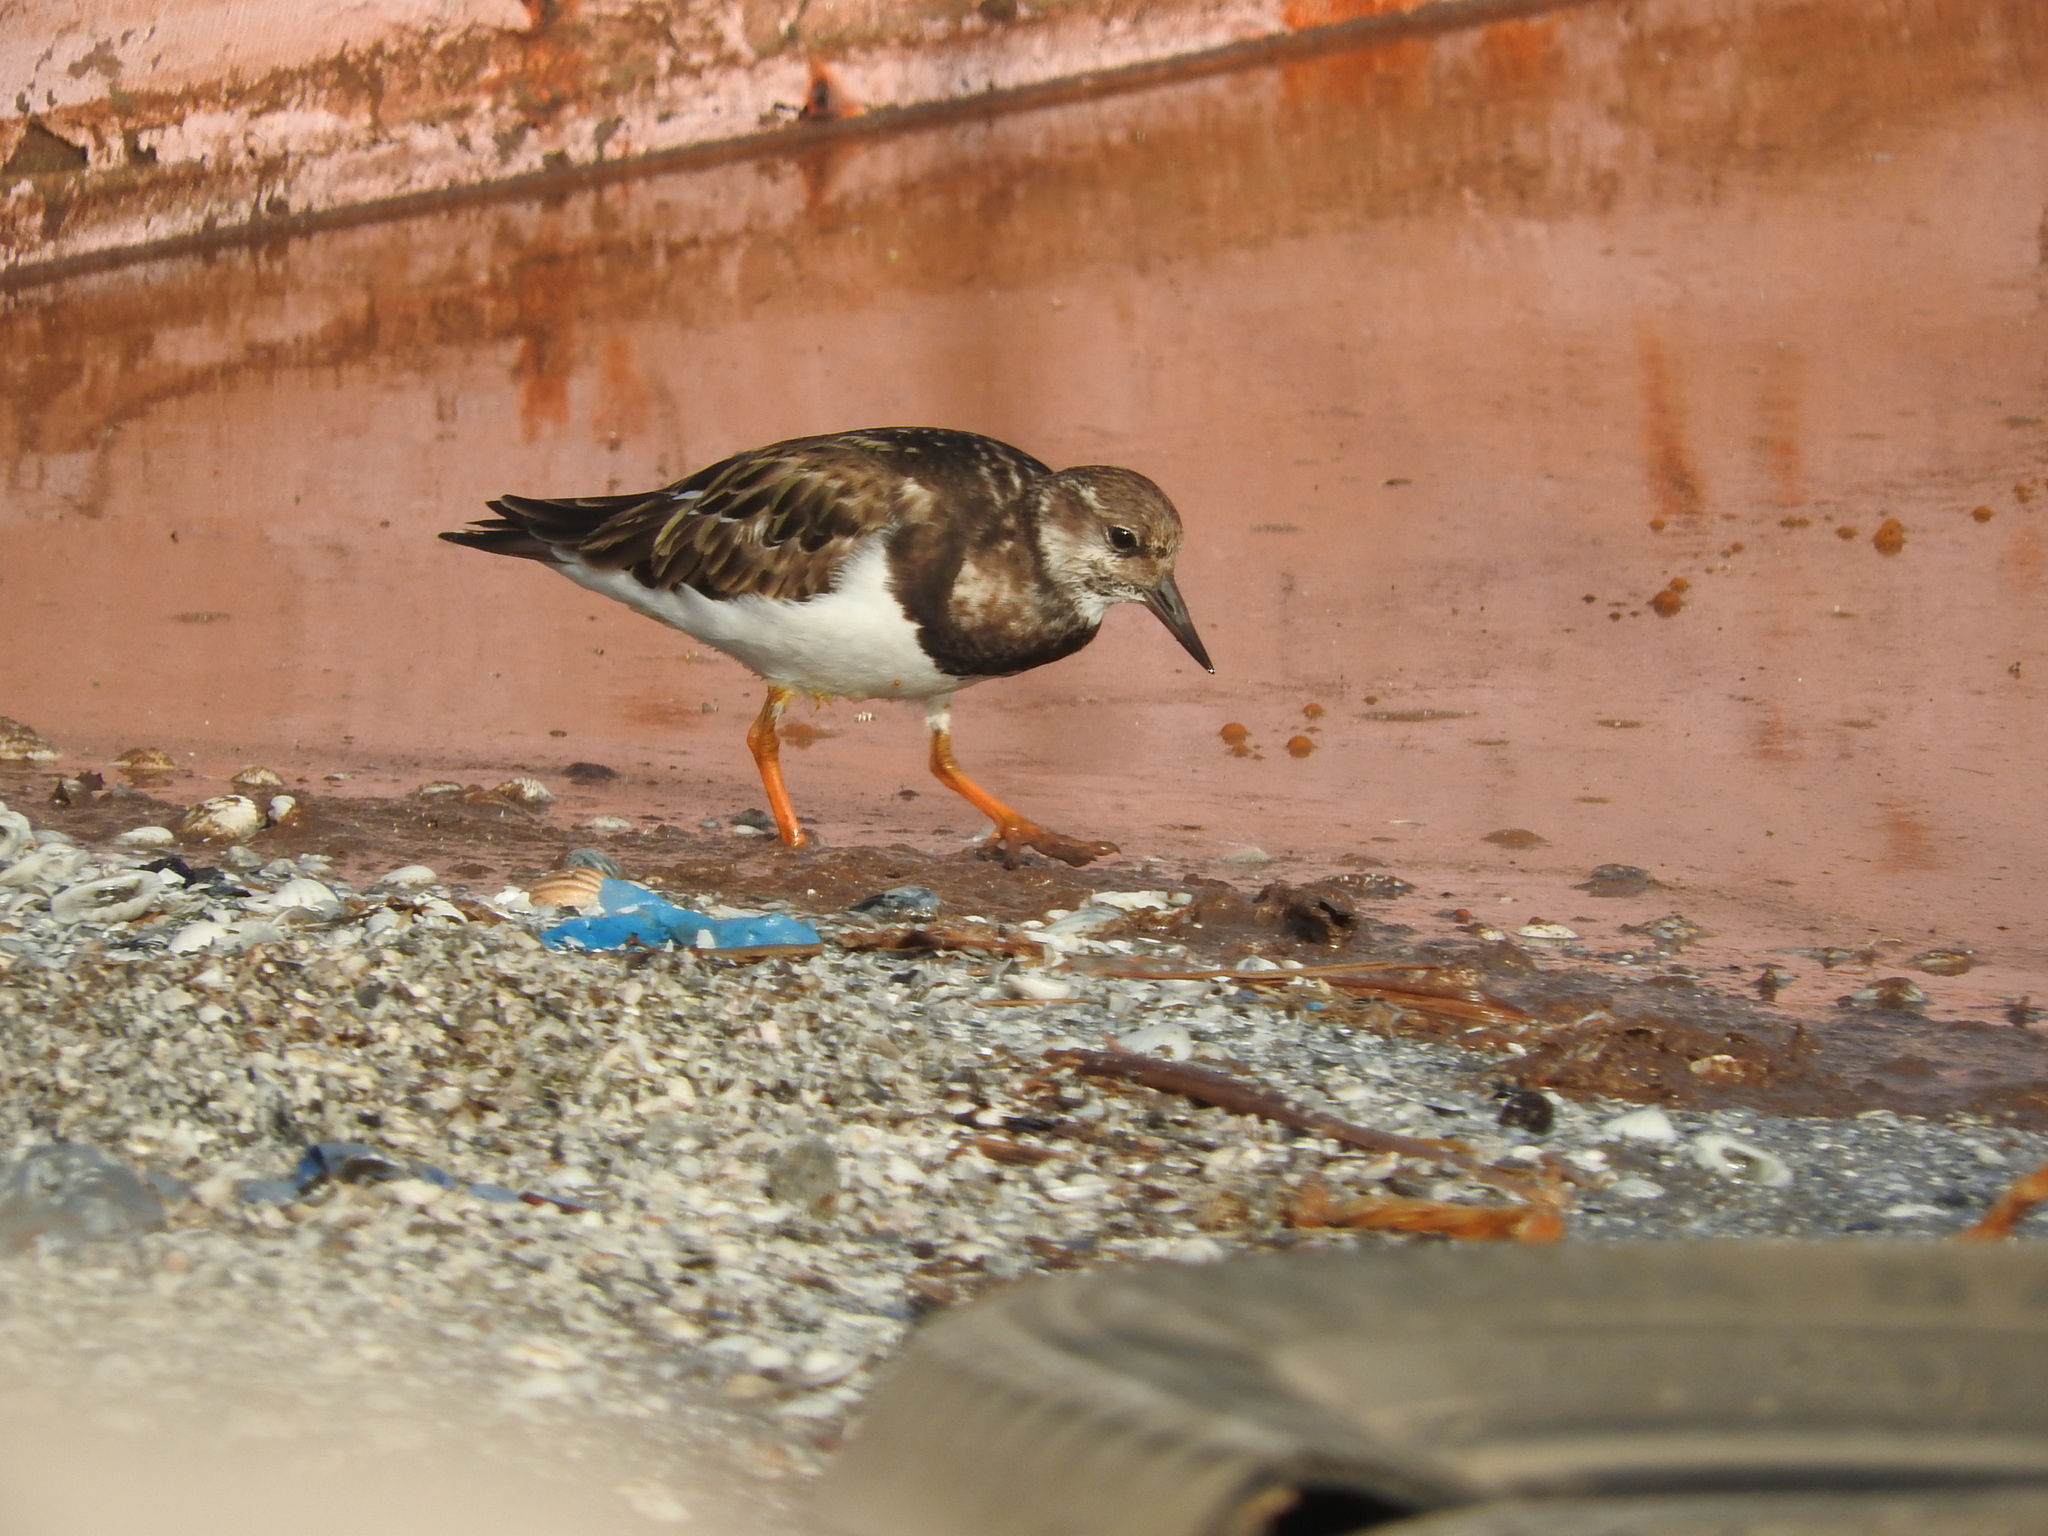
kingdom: Animalia
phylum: Chordata
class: Aves
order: Charadriiformes
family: Scolopacidae
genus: Arenaria
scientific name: Arenaria interpres
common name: Ruddy turnstone
